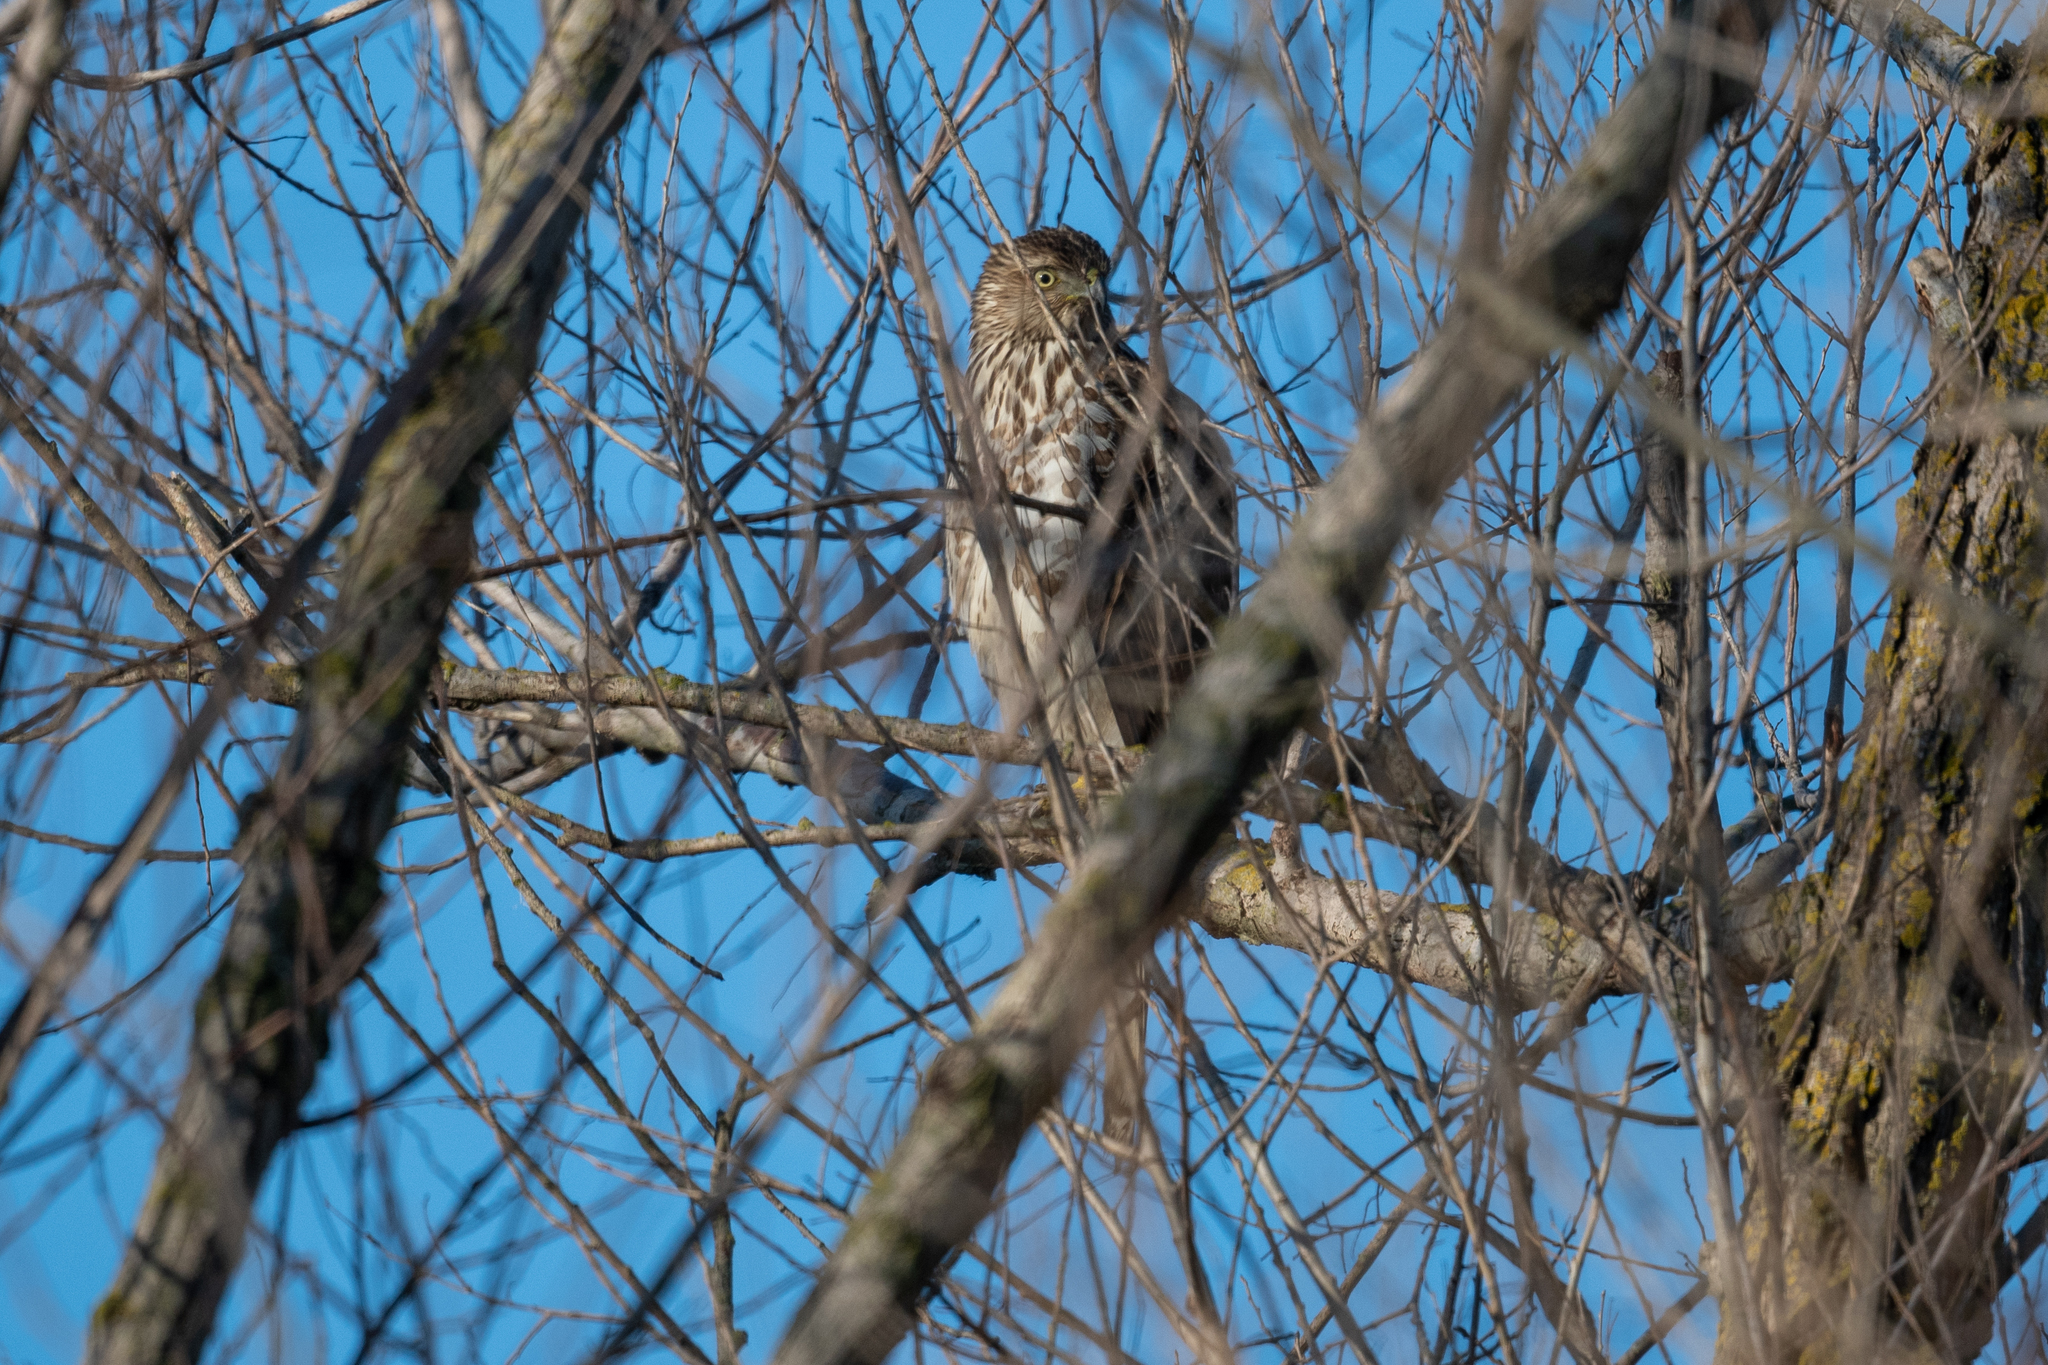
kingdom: Animalia
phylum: Chordata
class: Aves
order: Accipitriformes
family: Accipitridae
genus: Accipiter
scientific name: Accipiter cooperii
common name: Cooper's hawk
